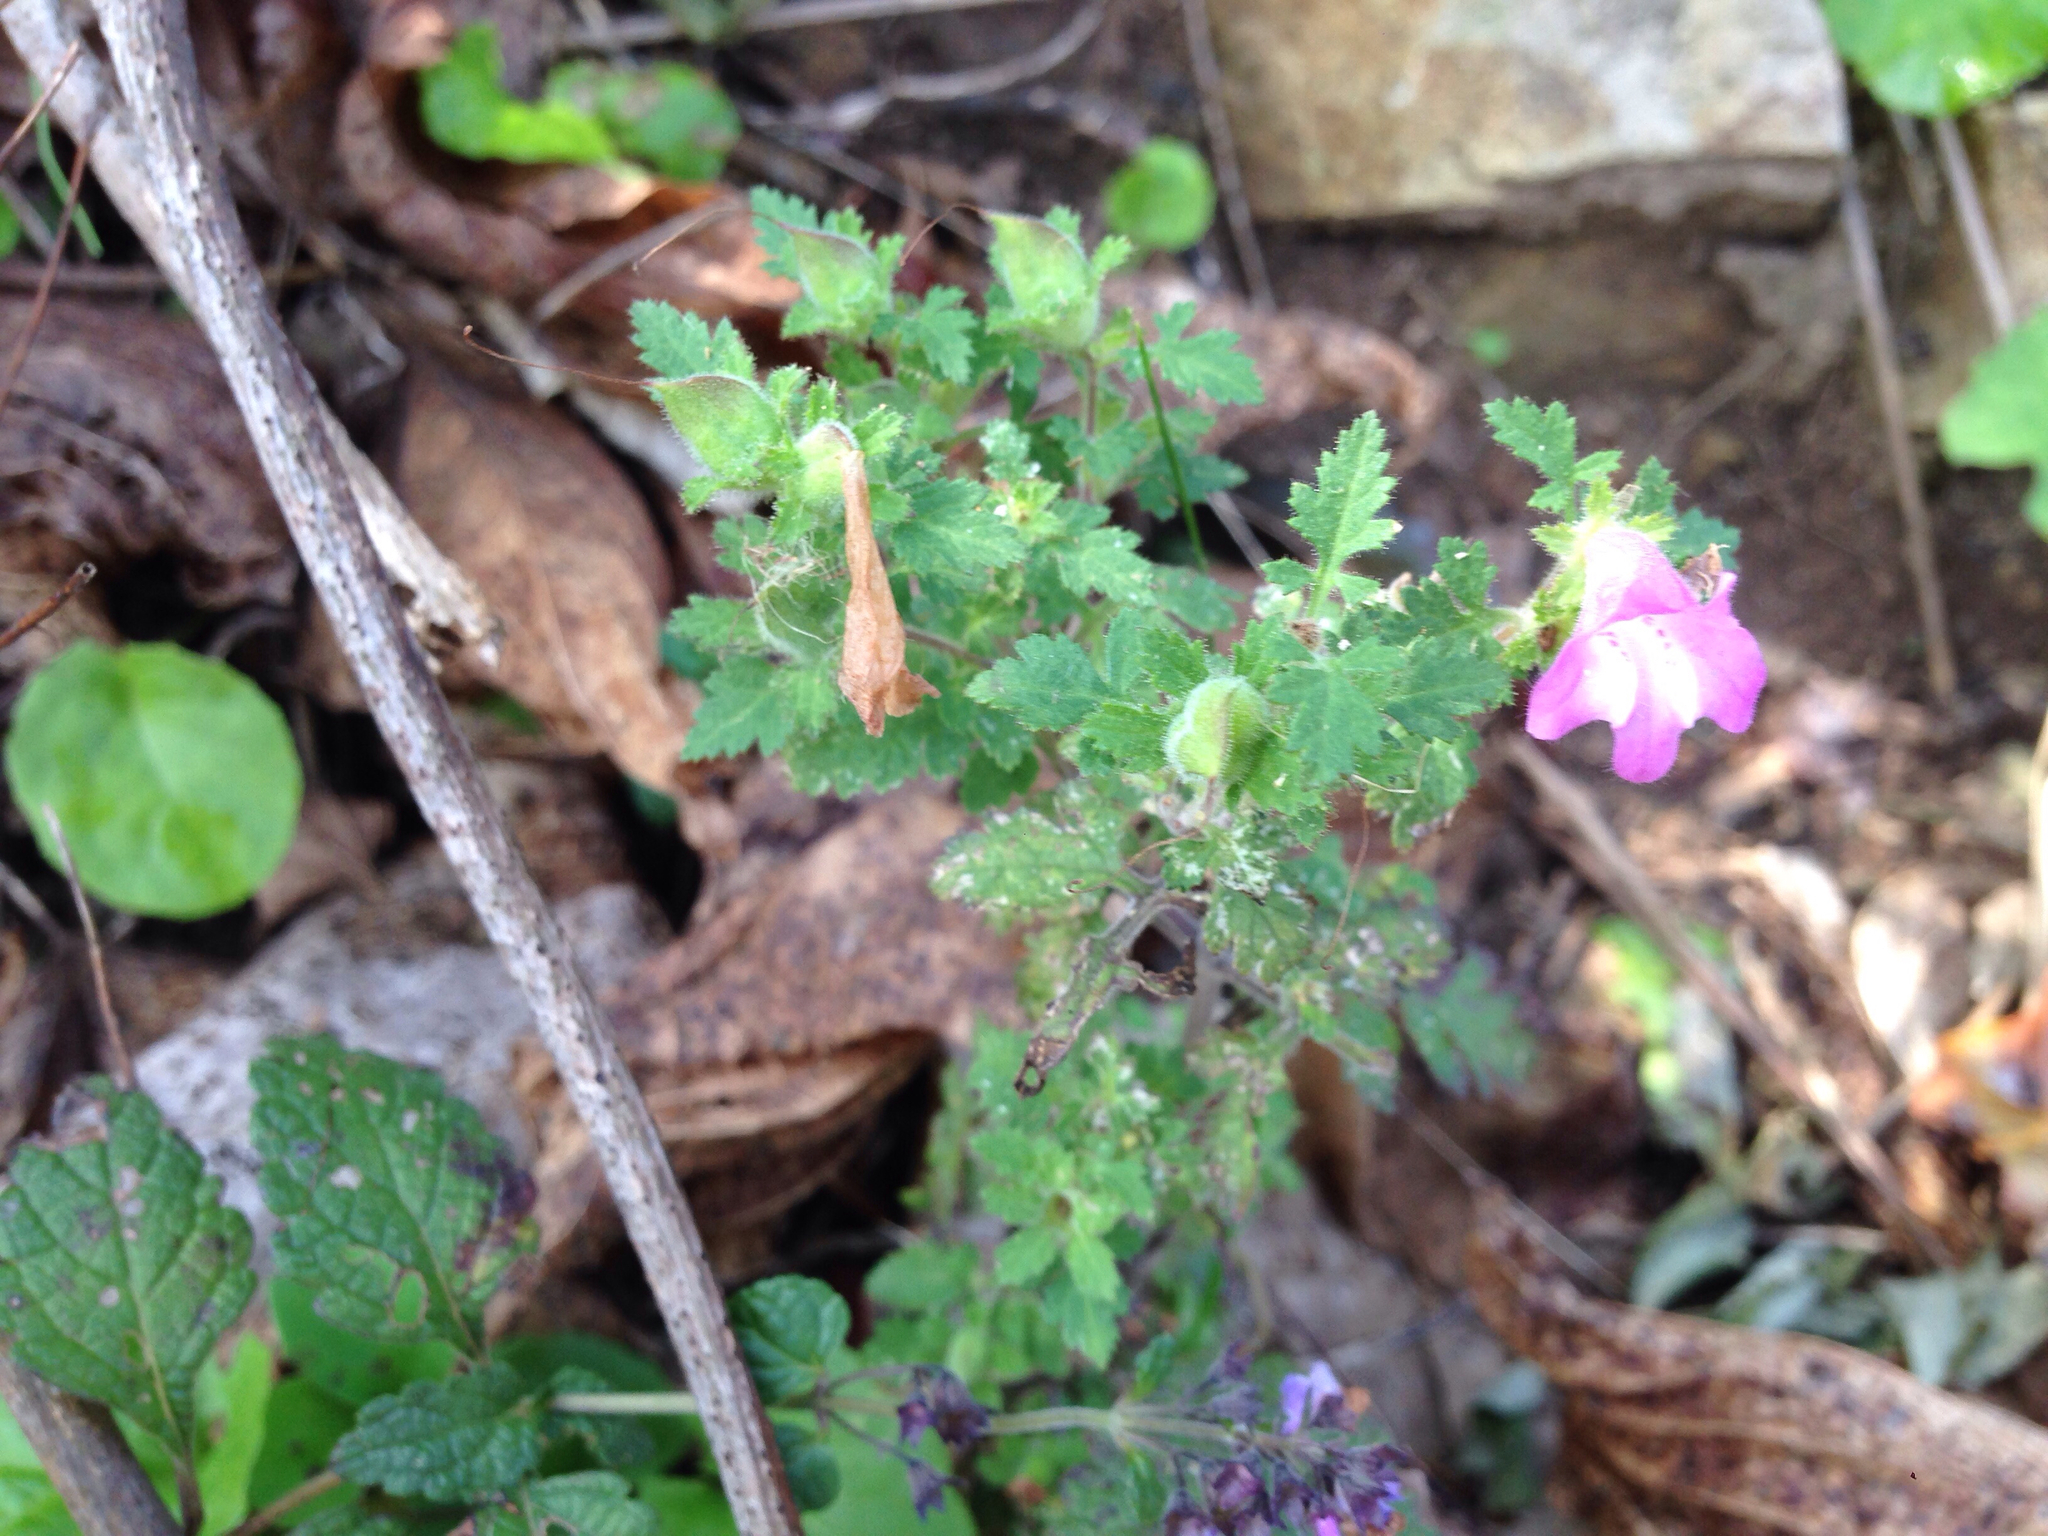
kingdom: Plantae
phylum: Tracheophyta
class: Magnoliopsida
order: Lamiales
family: Orobanchaceae
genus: Phtheirospermum
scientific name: Phtheirospermum japonicum
